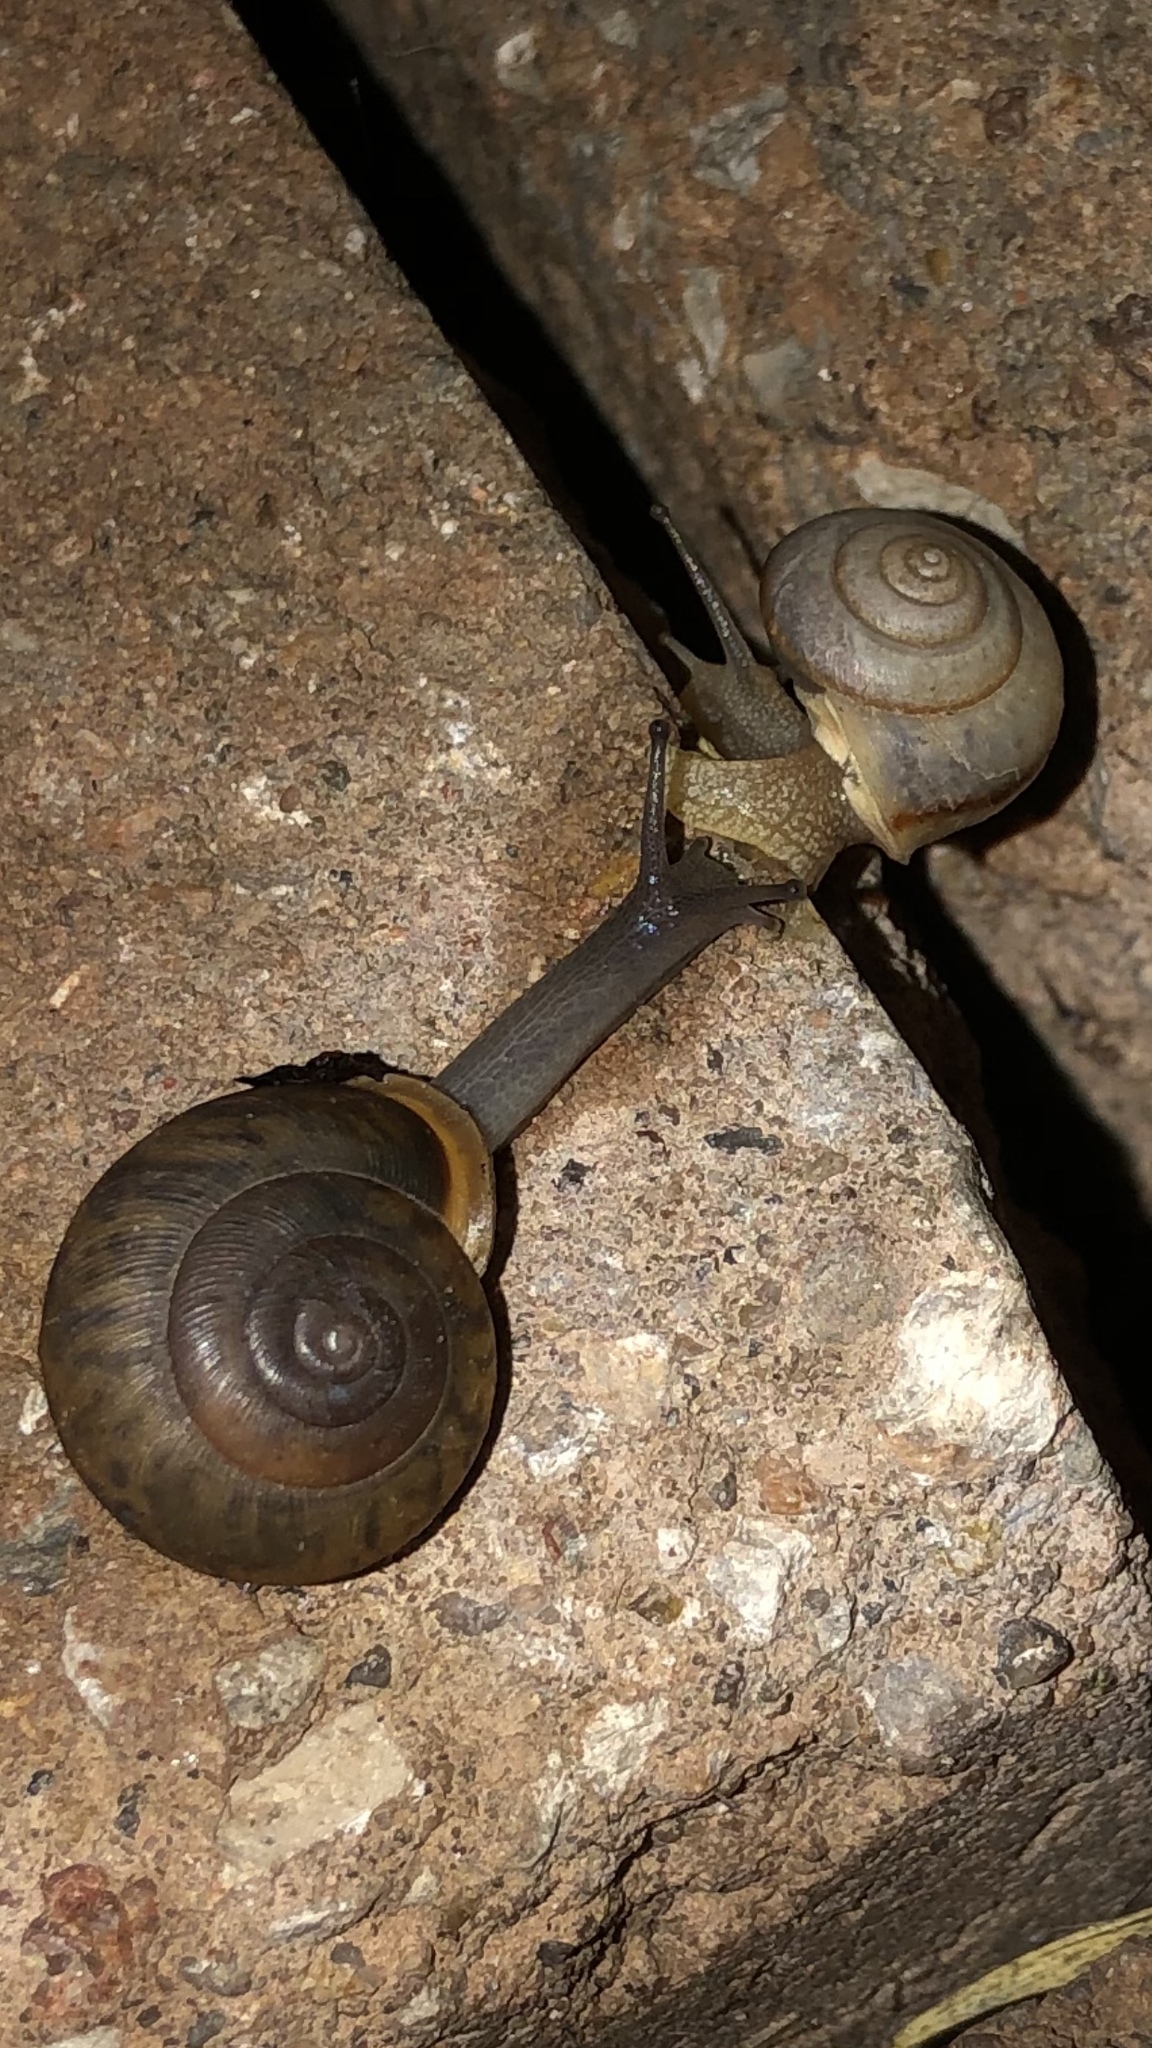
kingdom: Animalia
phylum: Mollusca
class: Gastropoda
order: Stylommatophora
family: Camaenidae
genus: Bradybaena
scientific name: Bradybaena similaris
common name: Asian trampsnail
